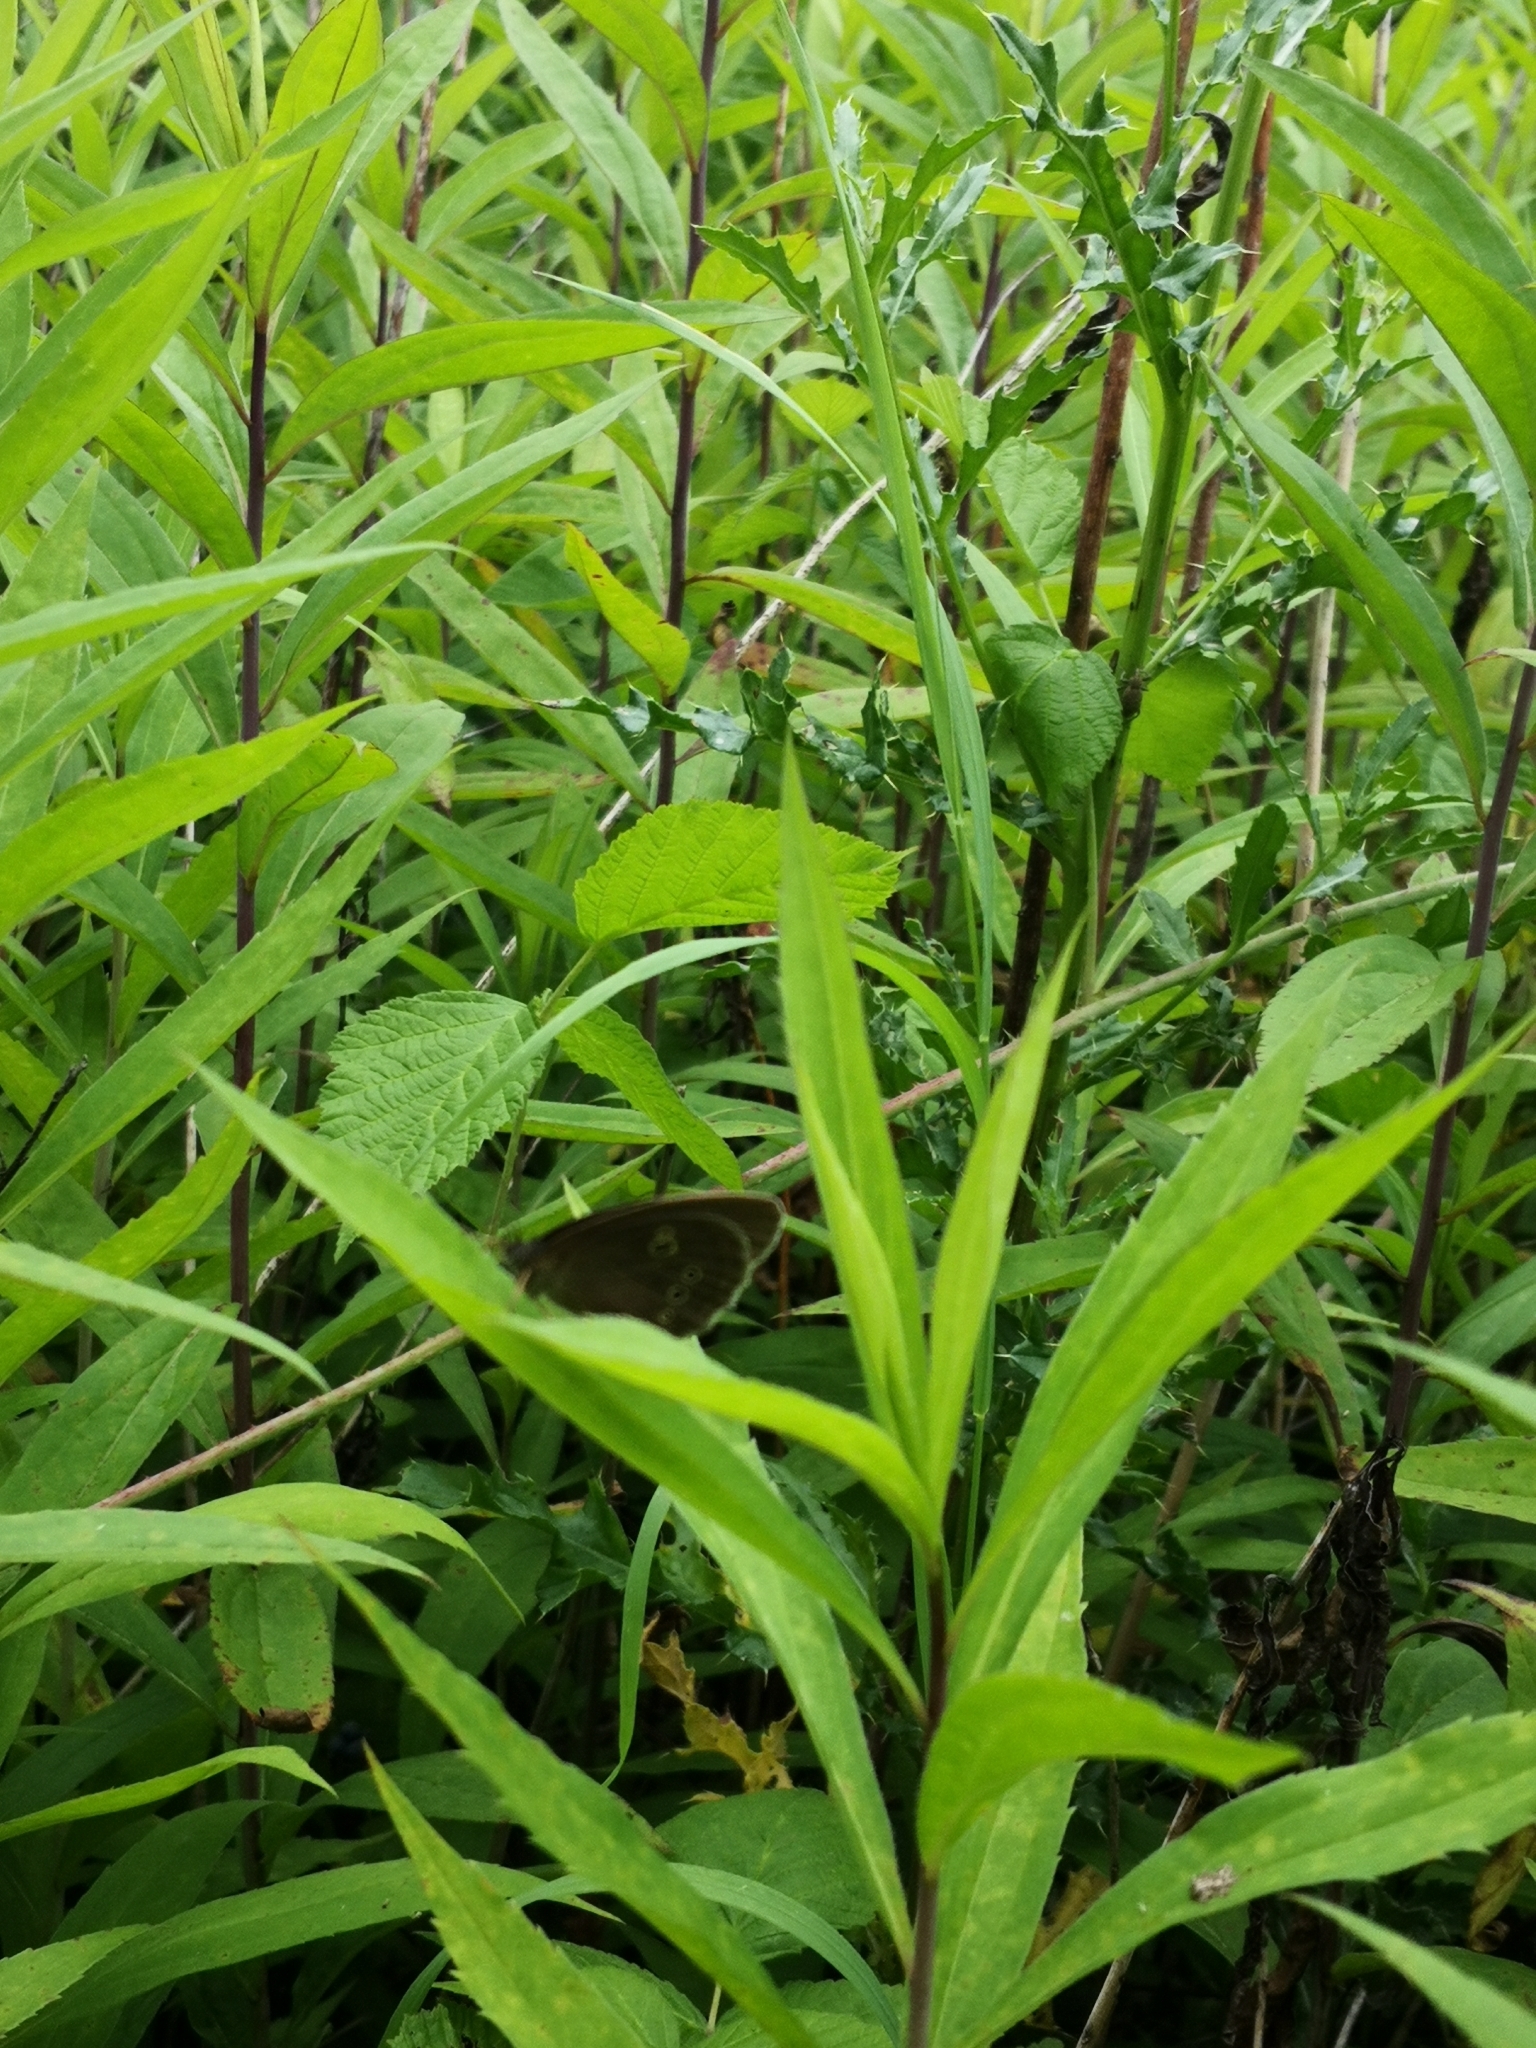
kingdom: Animalia
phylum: Arthropoda
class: Insecta
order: Lepidoptera
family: Nymphalidae
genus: Aphantopus
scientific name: Aphantopus hyperantus
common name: Ringlet
